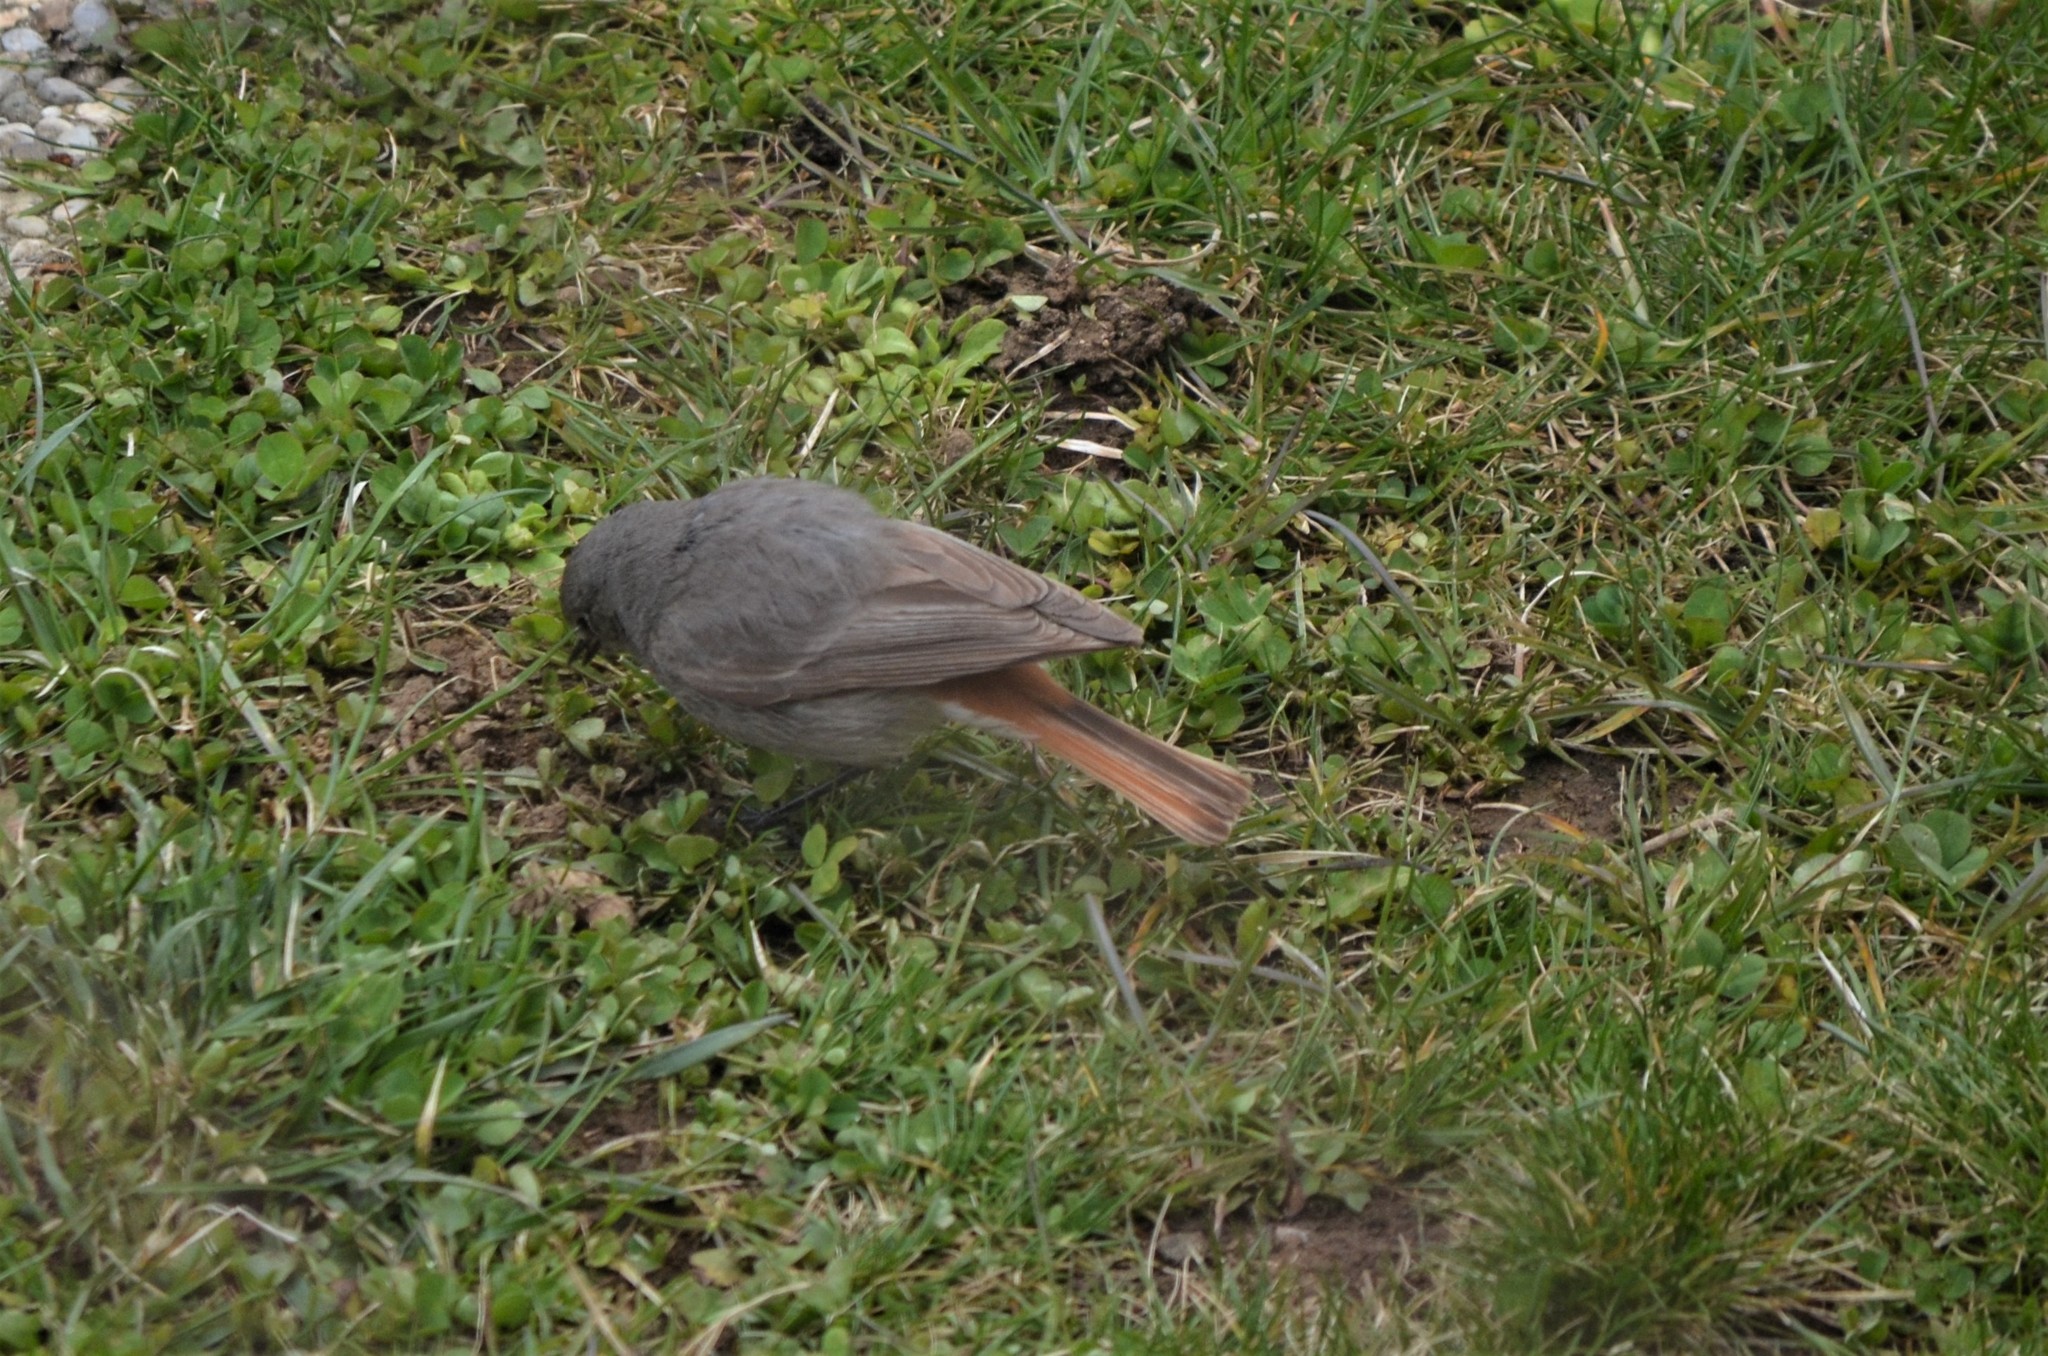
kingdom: Animalia
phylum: Chordata
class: Aves
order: Passeriformes
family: Muscicapidae
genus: Phoenicurus
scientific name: Phoenicurus ochruros
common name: Black redstart
